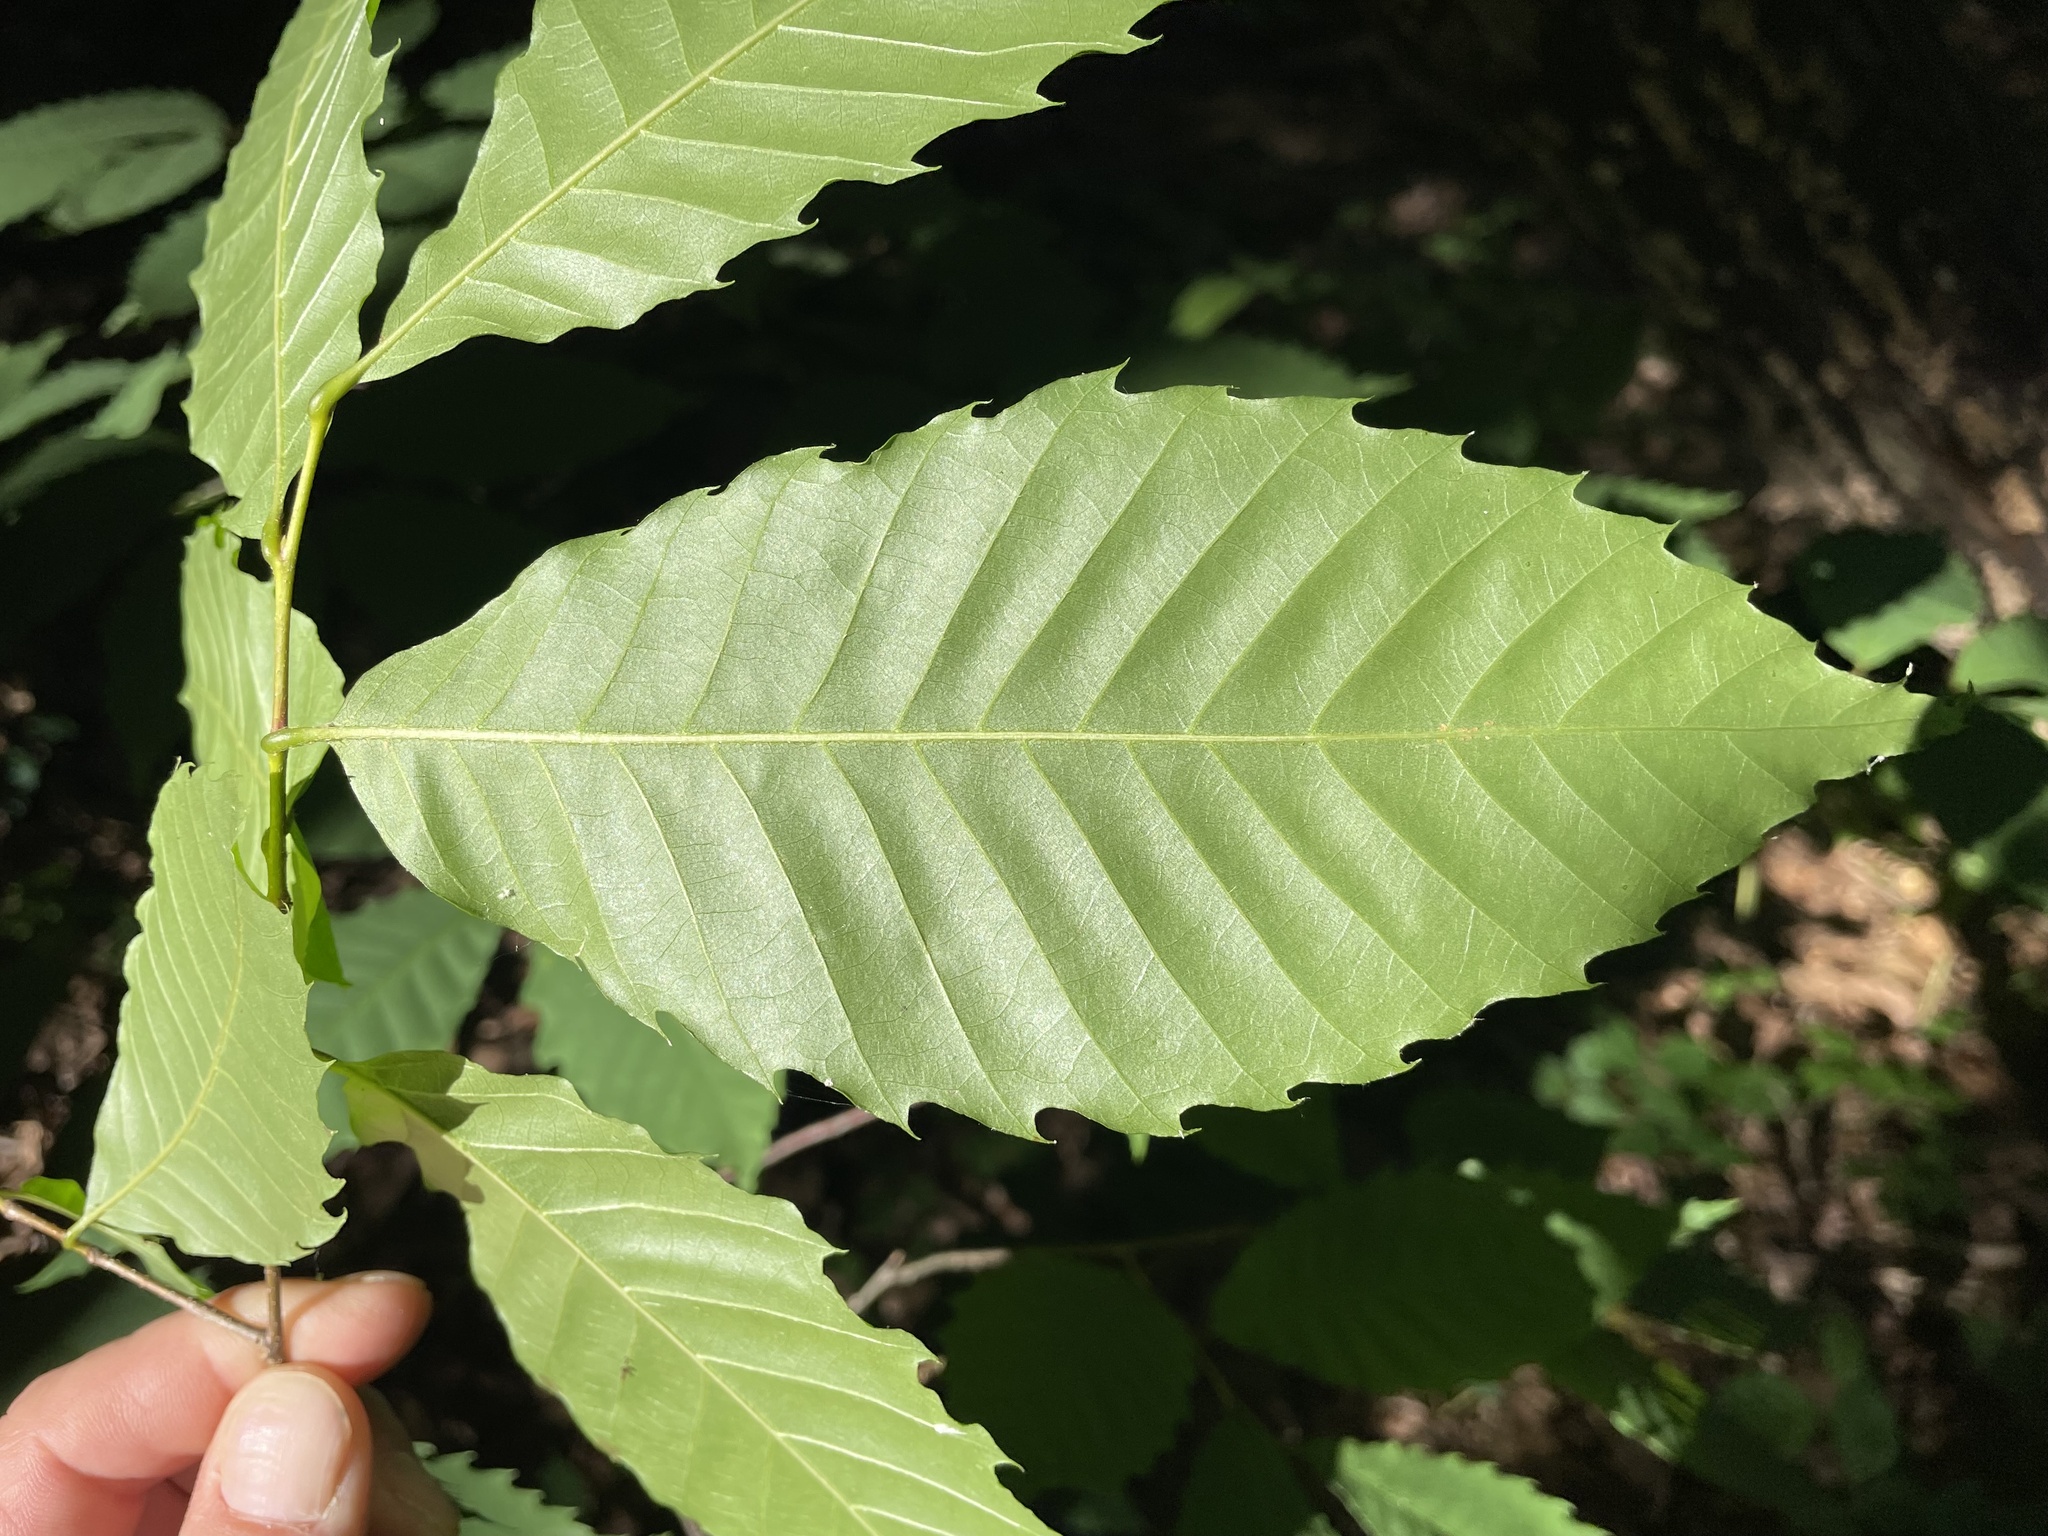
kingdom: Plantae
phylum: Tracheophyta
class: Magnoliopsida
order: Fagales
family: Fagaceae
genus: Castanea
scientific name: Castanea dentata
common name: American chestnut
